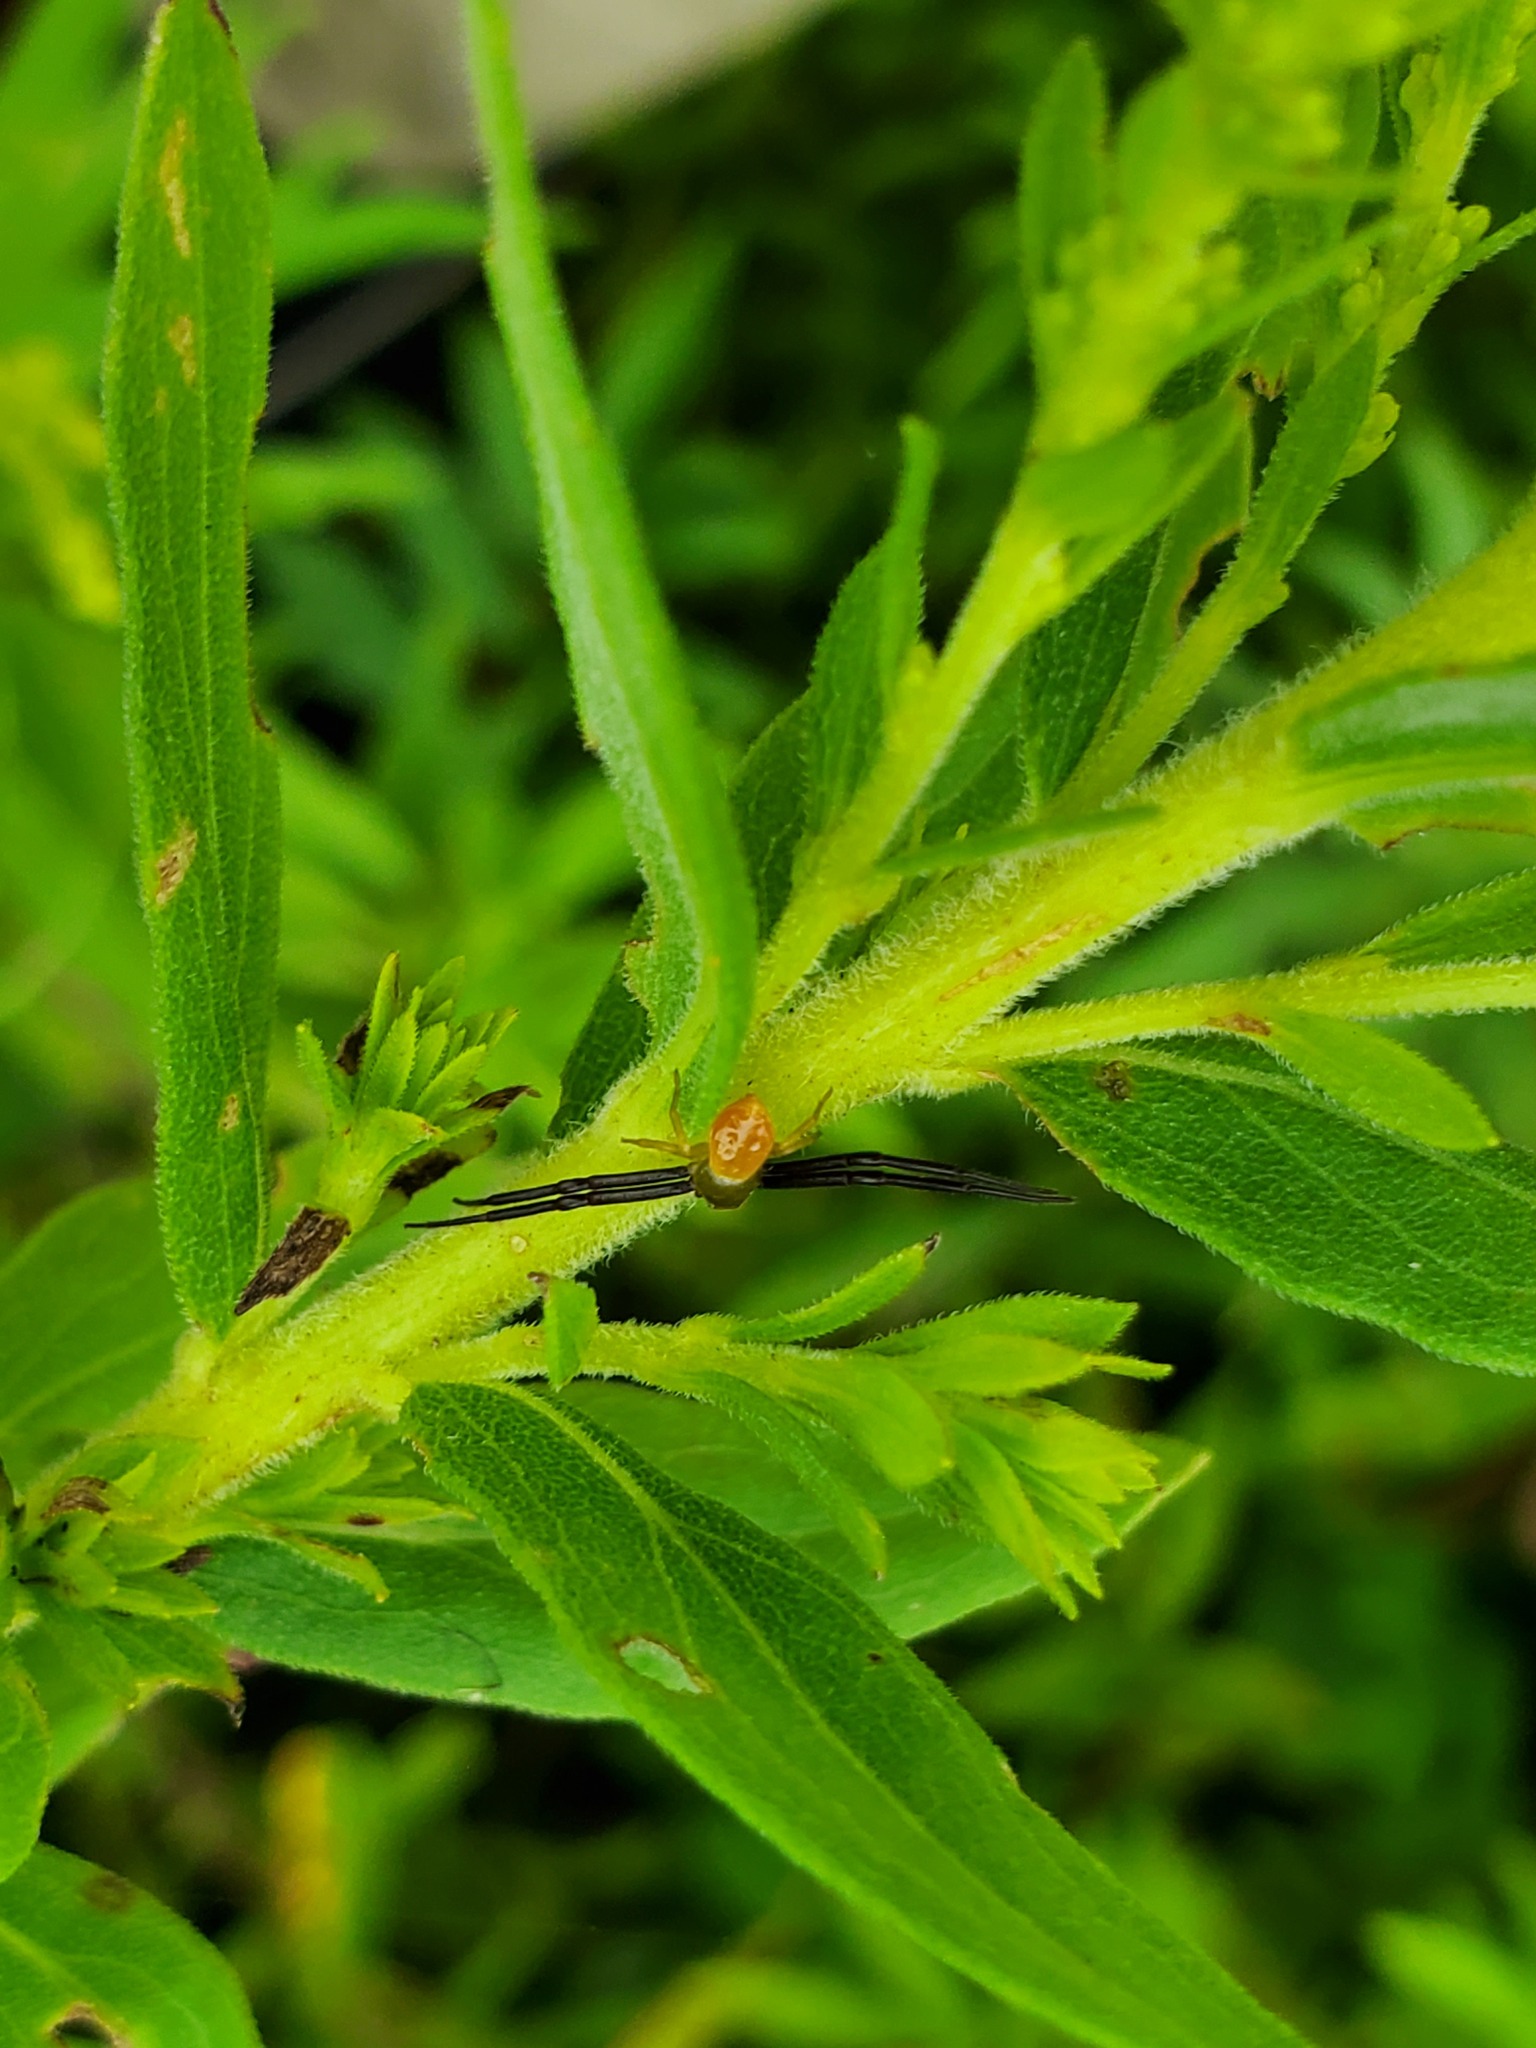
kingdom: Animalia
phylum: Arthropoda
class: Arachnida
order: Araneae
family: Thomisidae
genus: Misumenoides
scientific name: Misumenoides formosipes
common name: White-banded crab spider
